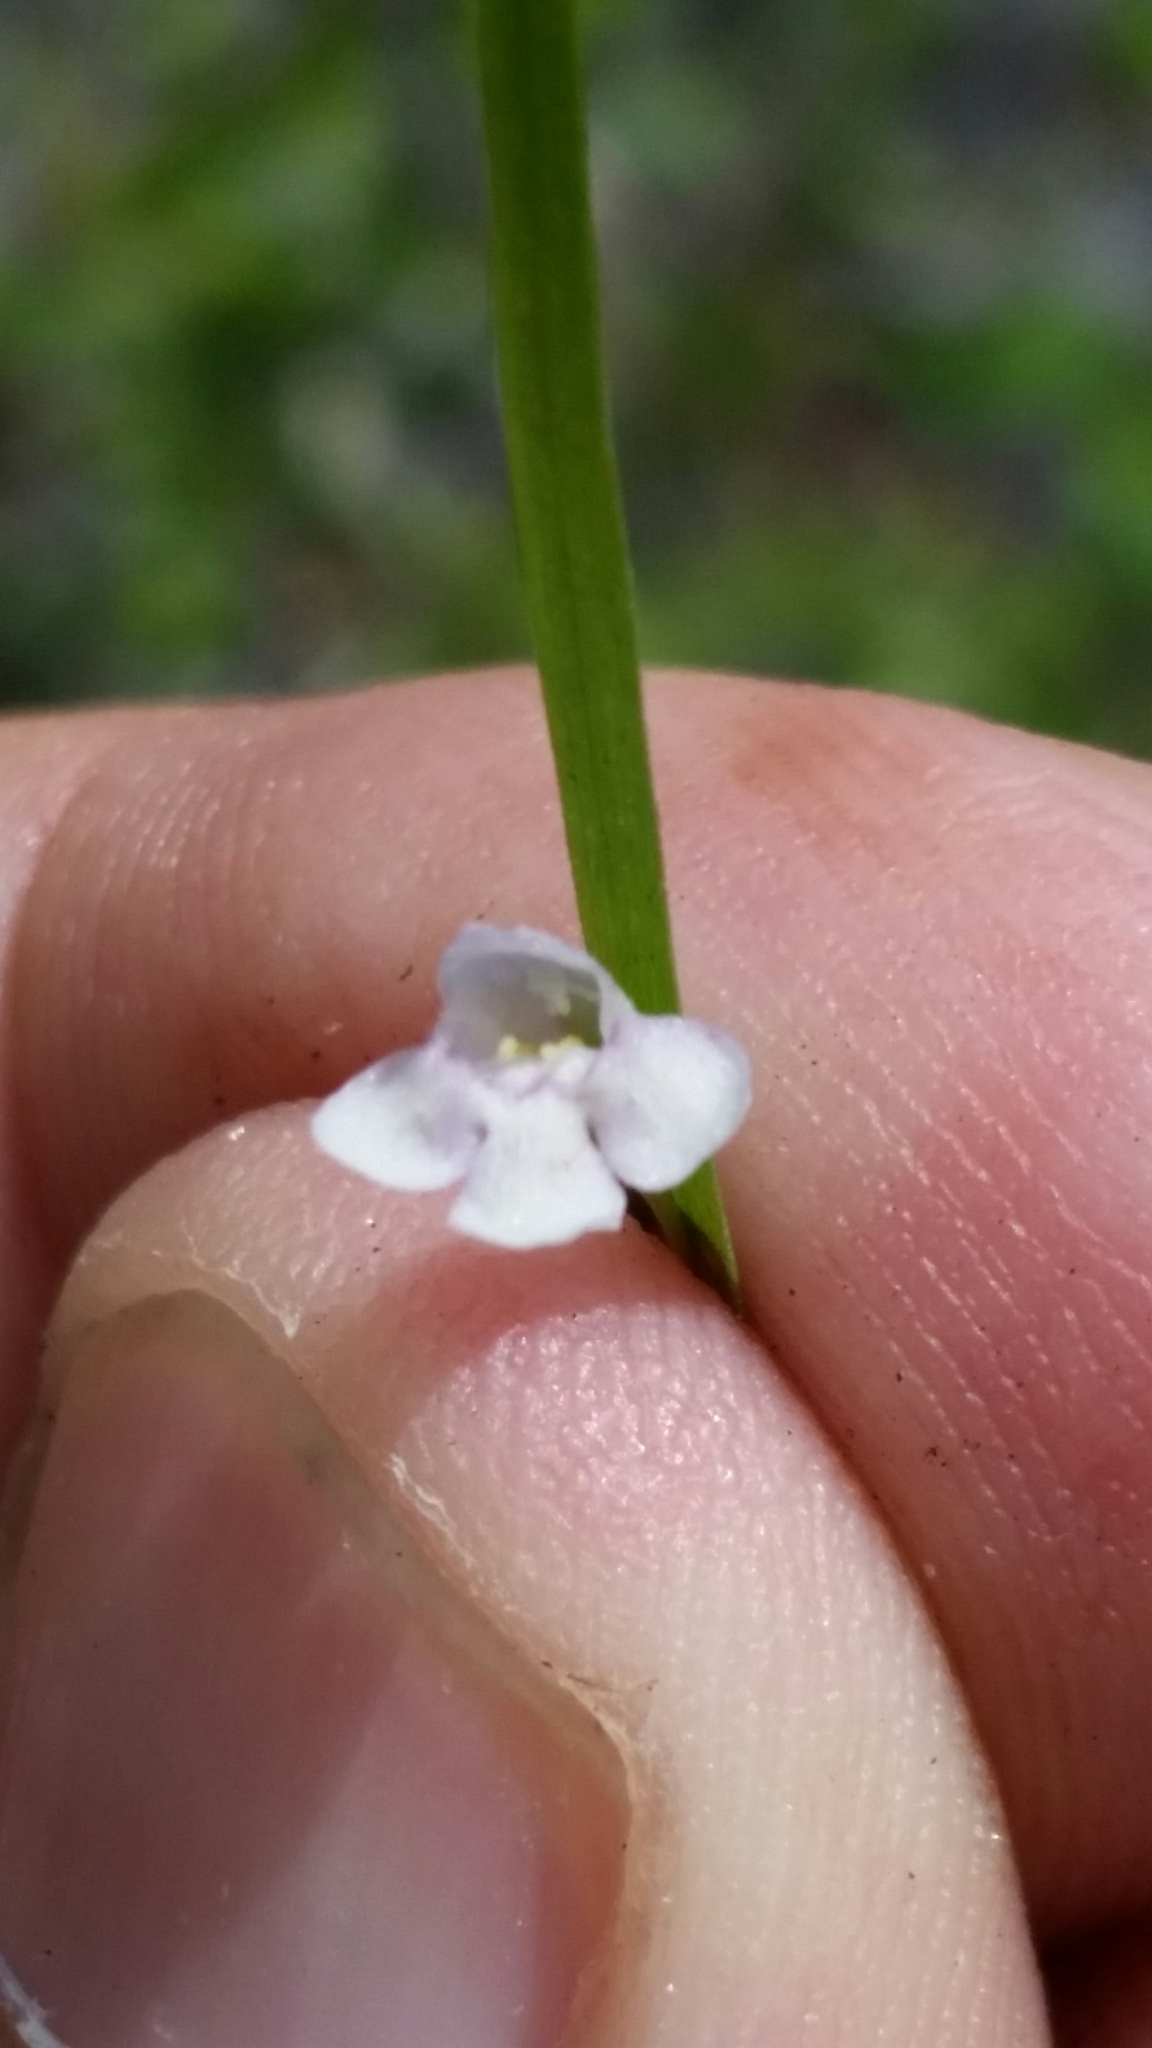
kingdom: Plantae
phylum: Tracheophyta
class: Magnoliopsida
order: Lamiales
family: Linderniaceae
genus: Lindernia
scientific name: Lindernia dubia
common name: Annual false pimpernel
